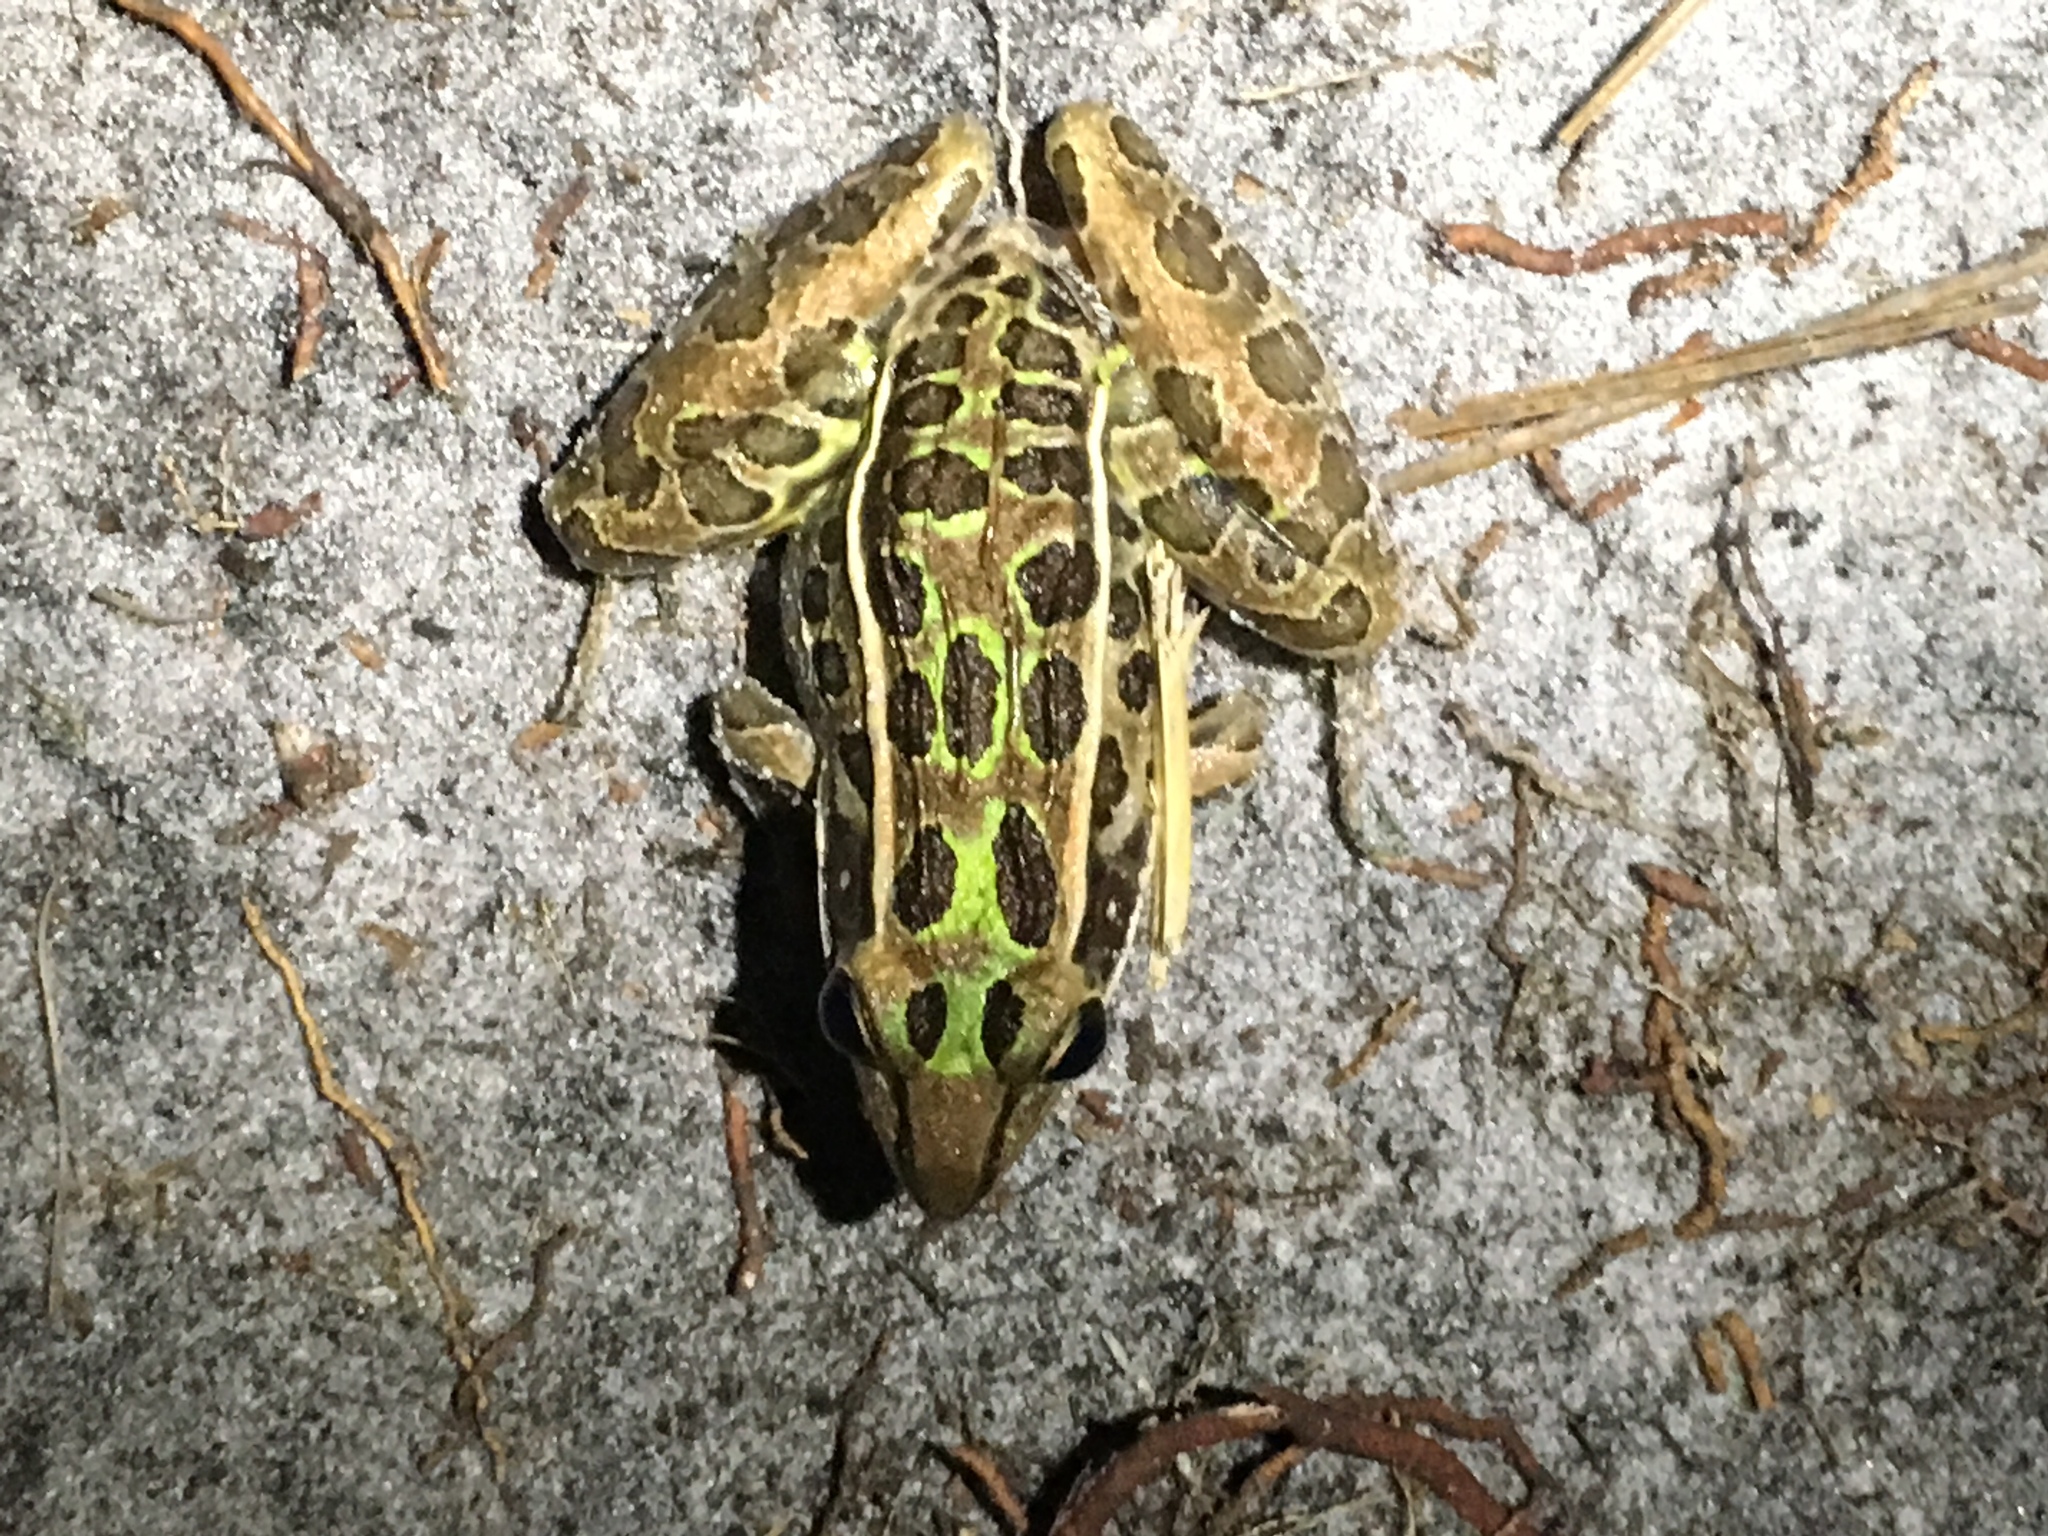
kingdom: Animalia
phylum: Chordata
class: Amphibia
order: Anura
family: Ranidae
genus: Lithobates
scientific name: Lithobates sphenocephalus
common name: Southern leopard frog
